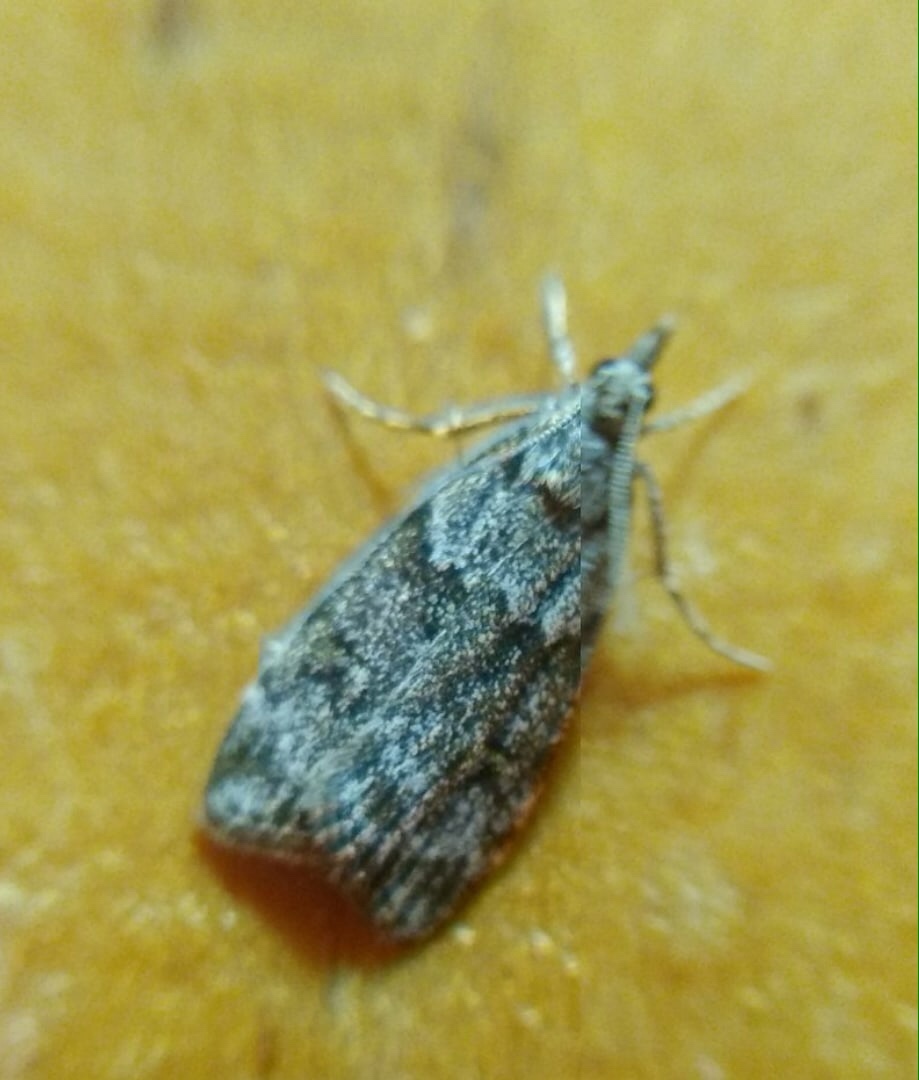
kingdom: Animalia
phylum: Arthropoda
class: Insecta
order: Lepidoptera
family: Crambidae
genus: Scoparia
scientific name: Scoparia ancipitella
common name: Northern grey
